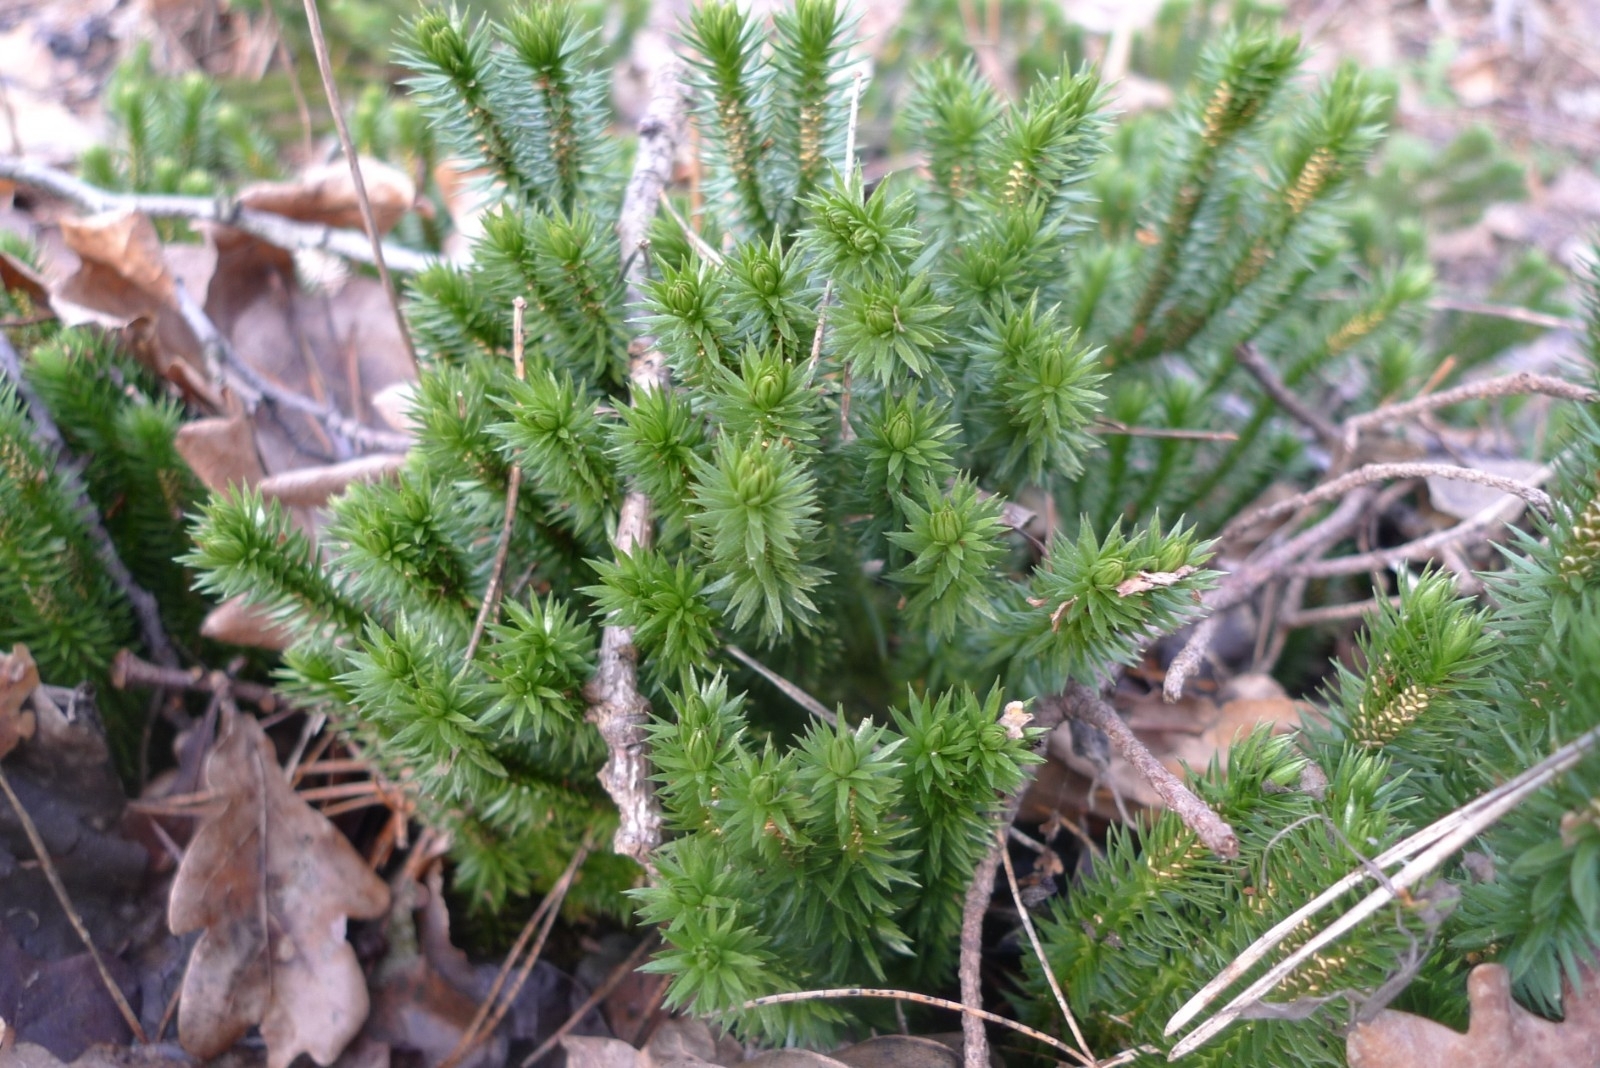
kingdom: Plantae
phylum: Tracheophyta
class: Lycopodiopsida
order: Lycopodiales
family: Lycopodiaceae
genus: Huperzia
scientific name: Huperzia selago
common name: Northern firmoss
